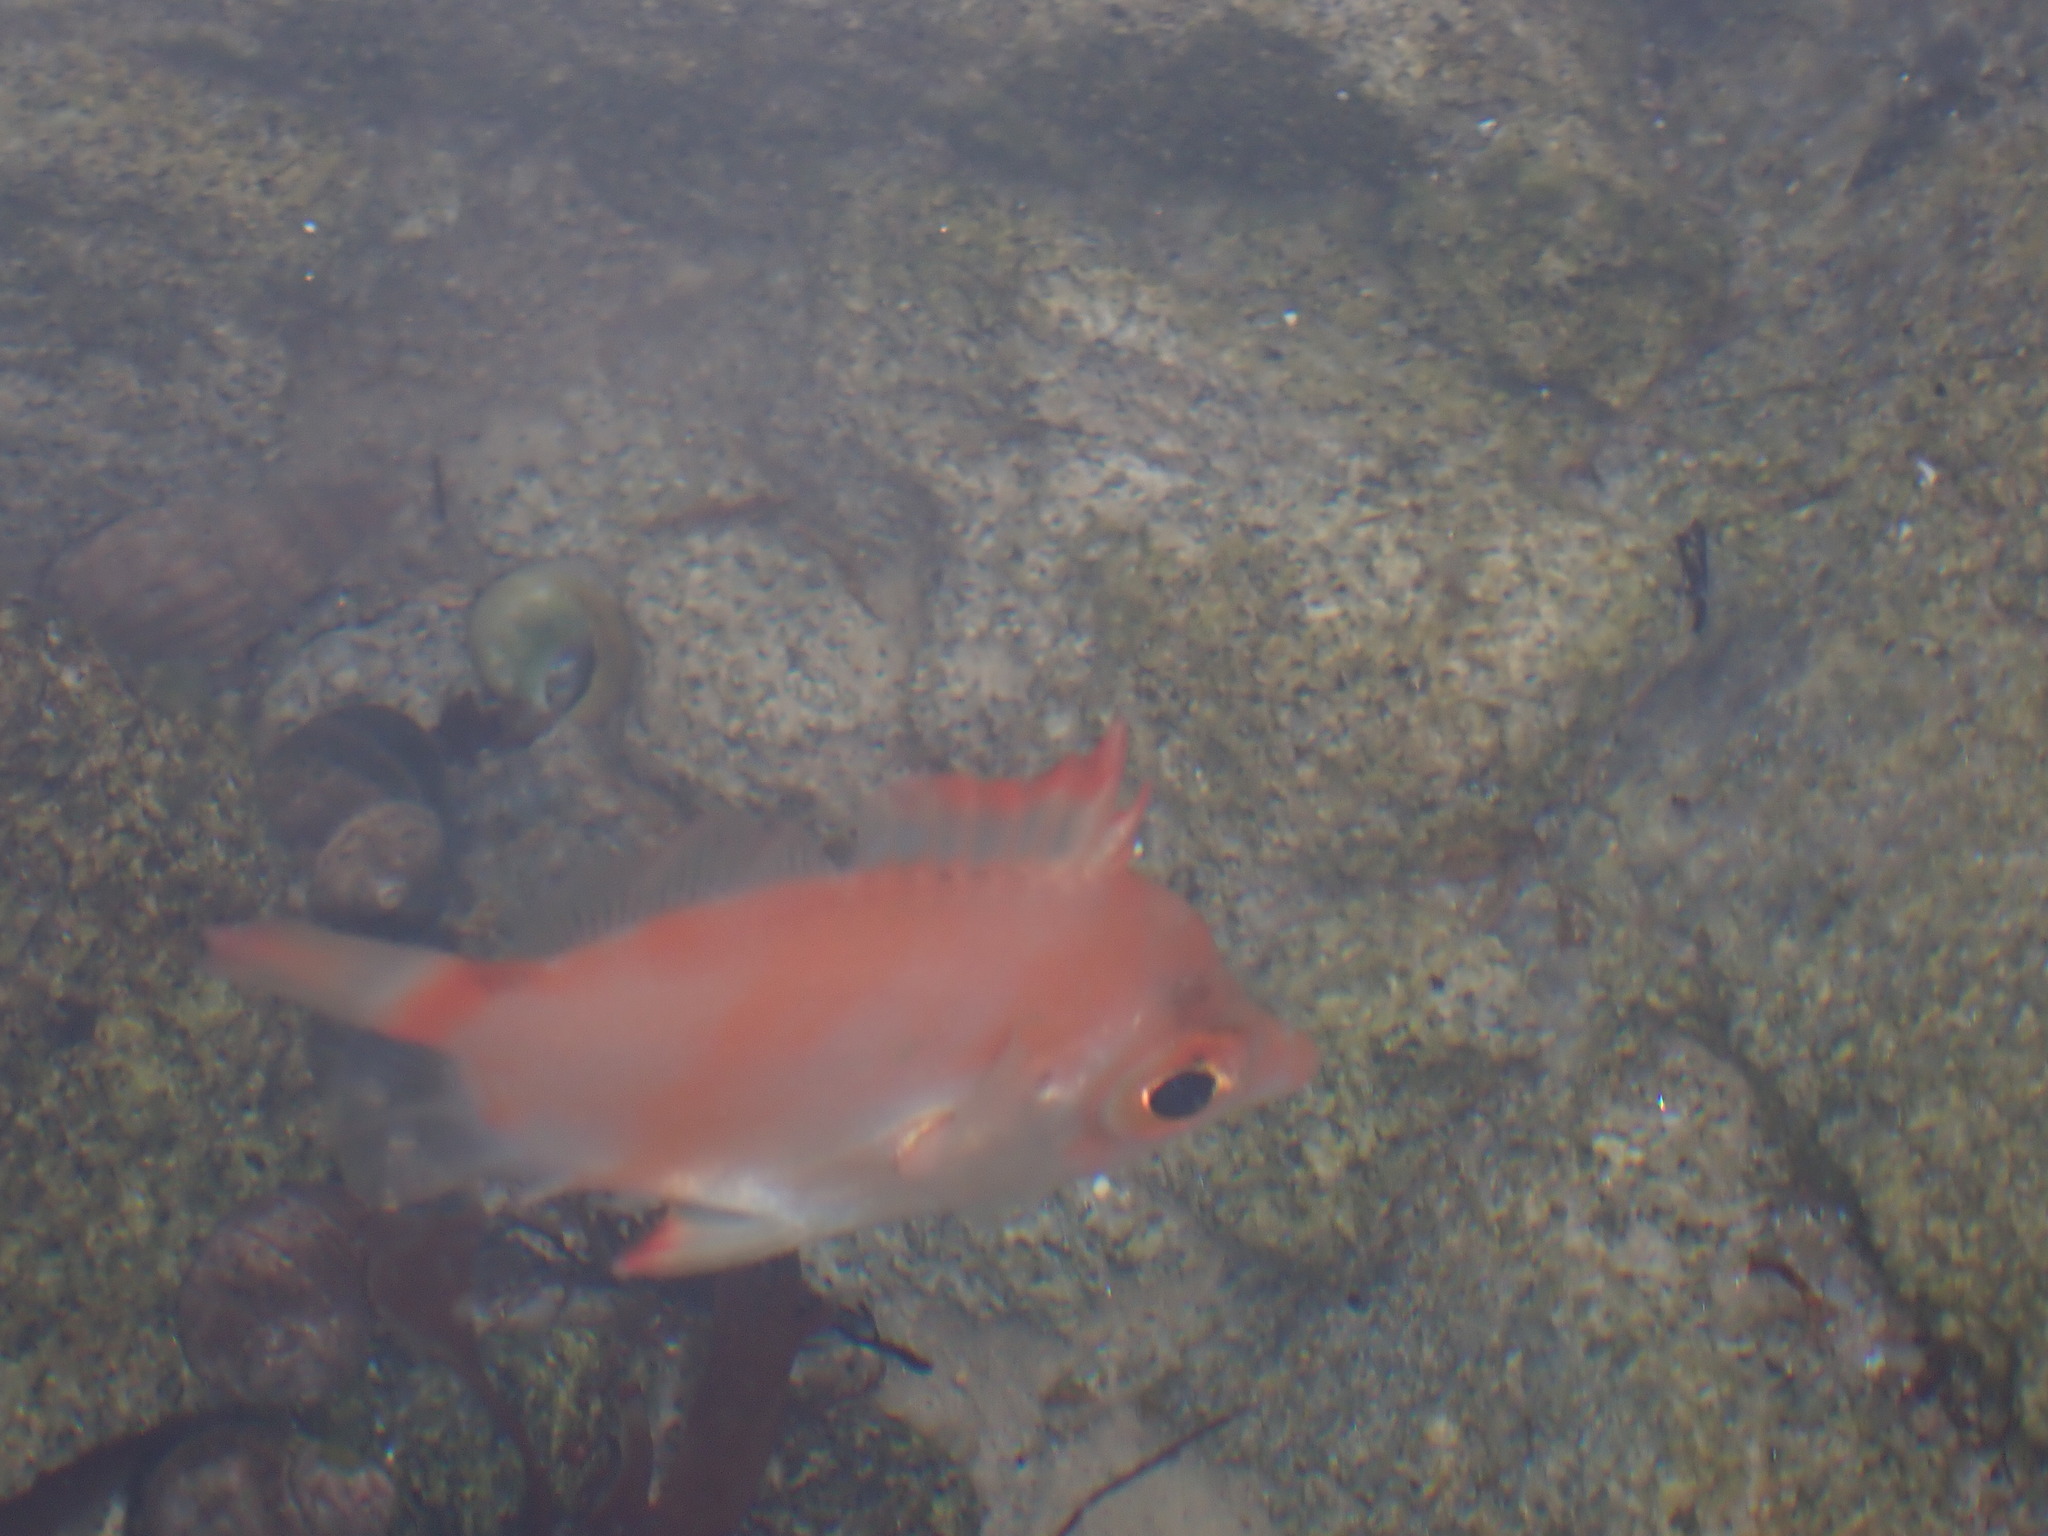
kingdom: Animalia
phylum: Chordata
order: Perciformes
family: Caproidae
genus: Capros
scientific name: Capros aper
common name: Boarfish
